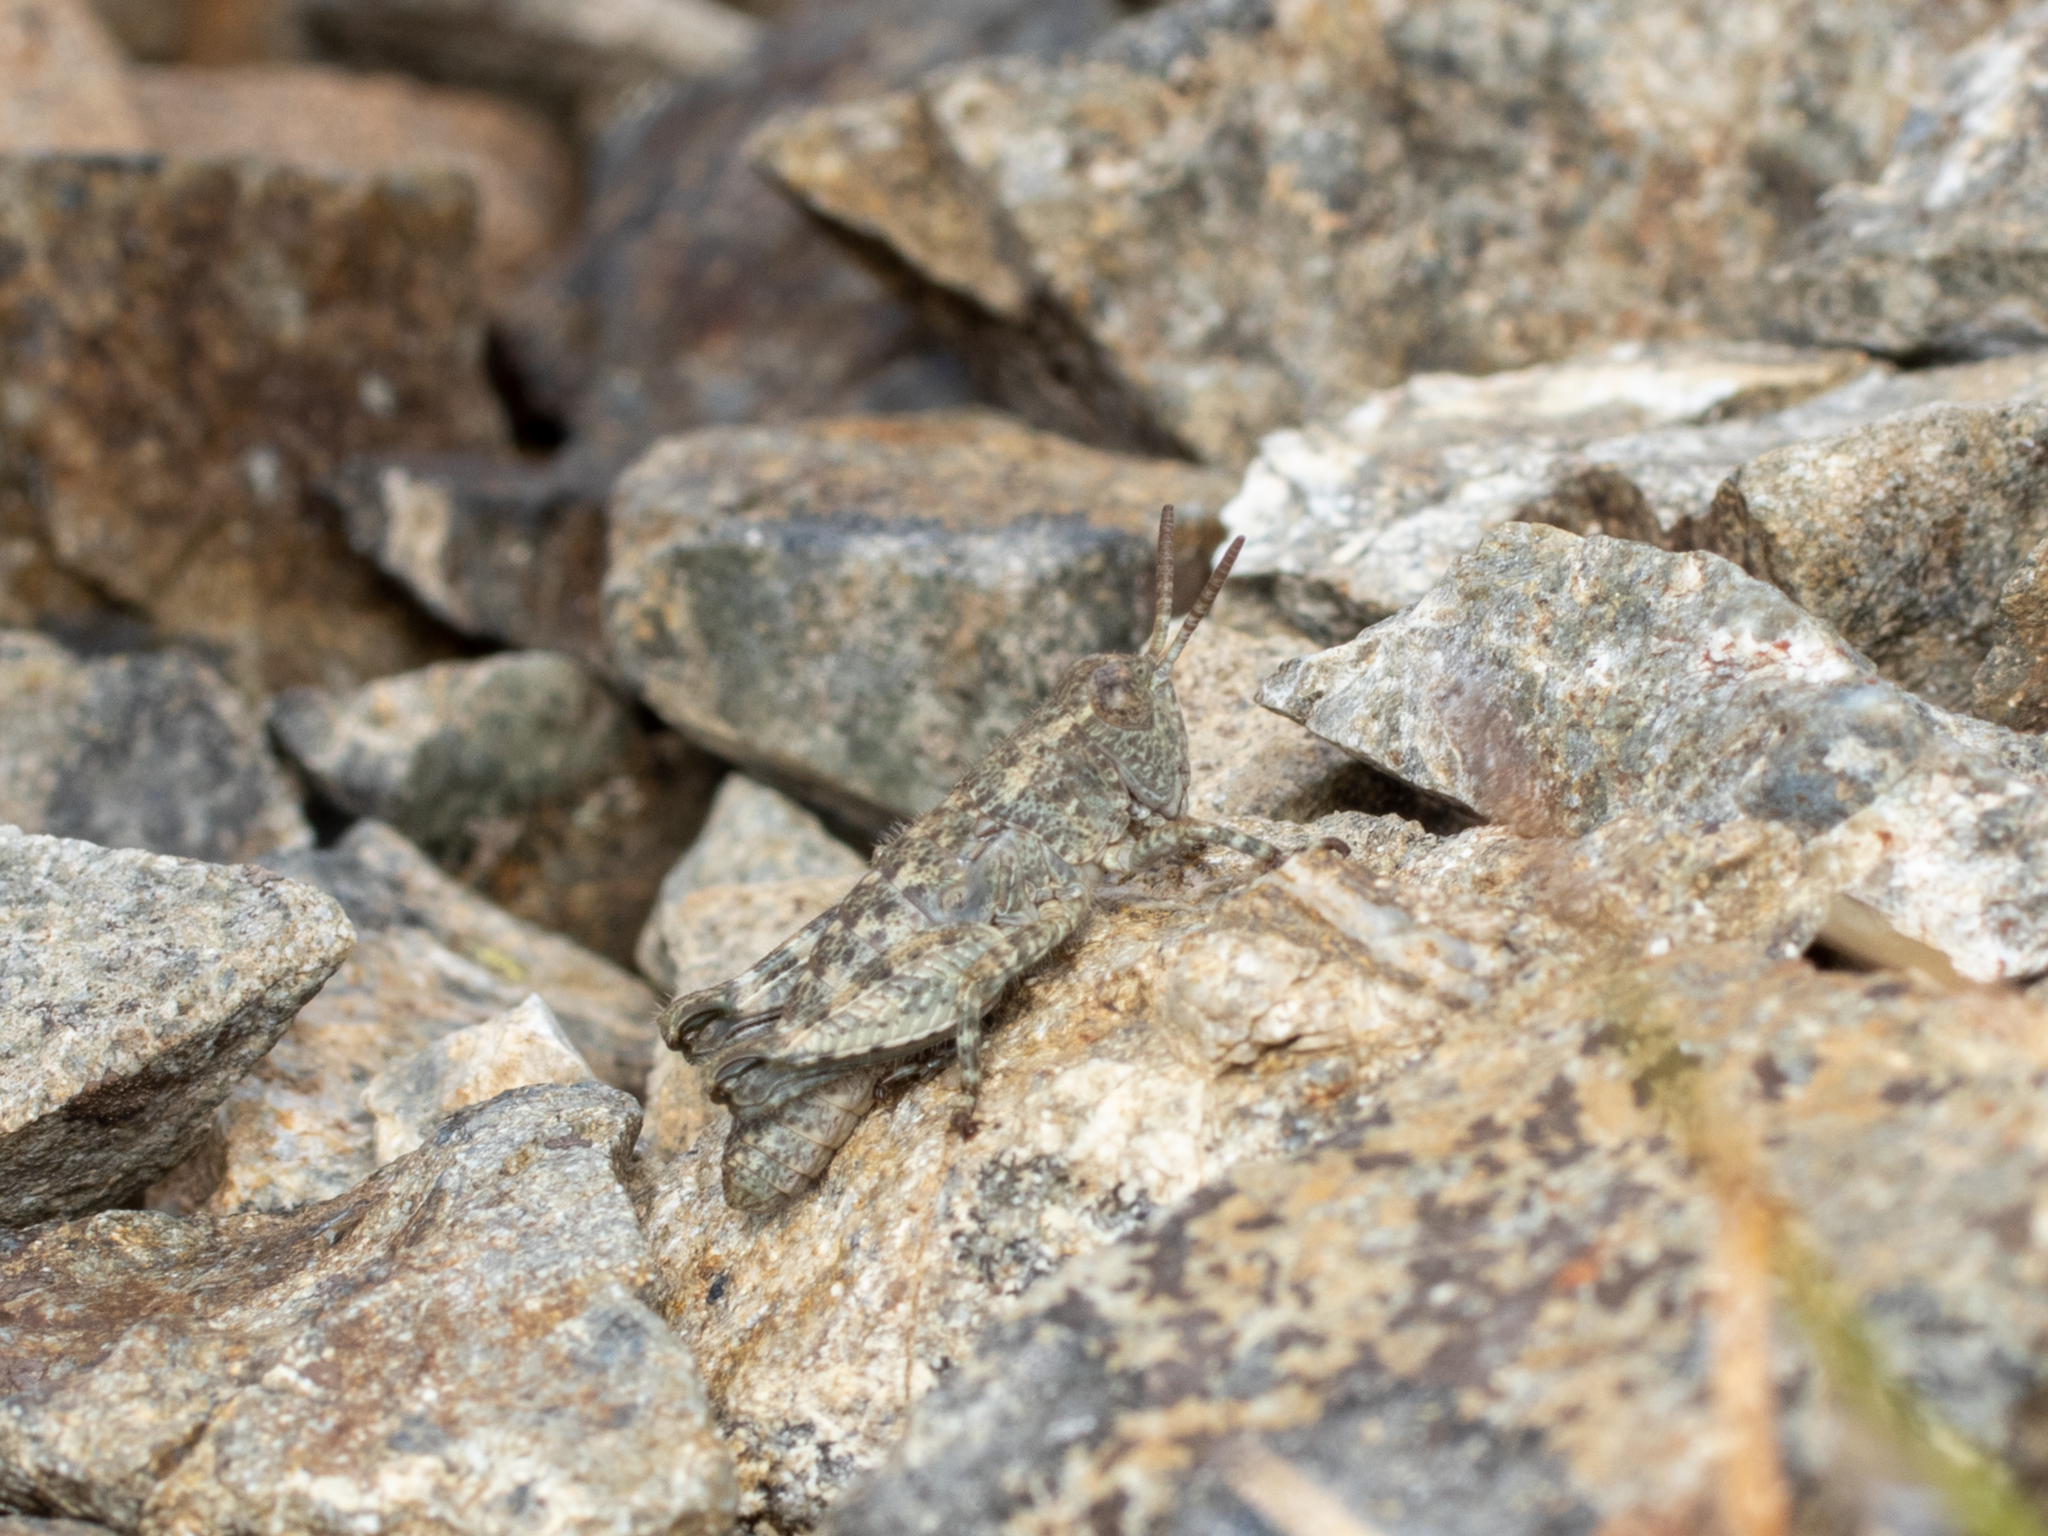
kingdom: Animalia
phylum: Arthropoda
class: Insecta
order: Orthoptera
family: Acrididae
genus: Sigaus
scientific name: Sigaus
